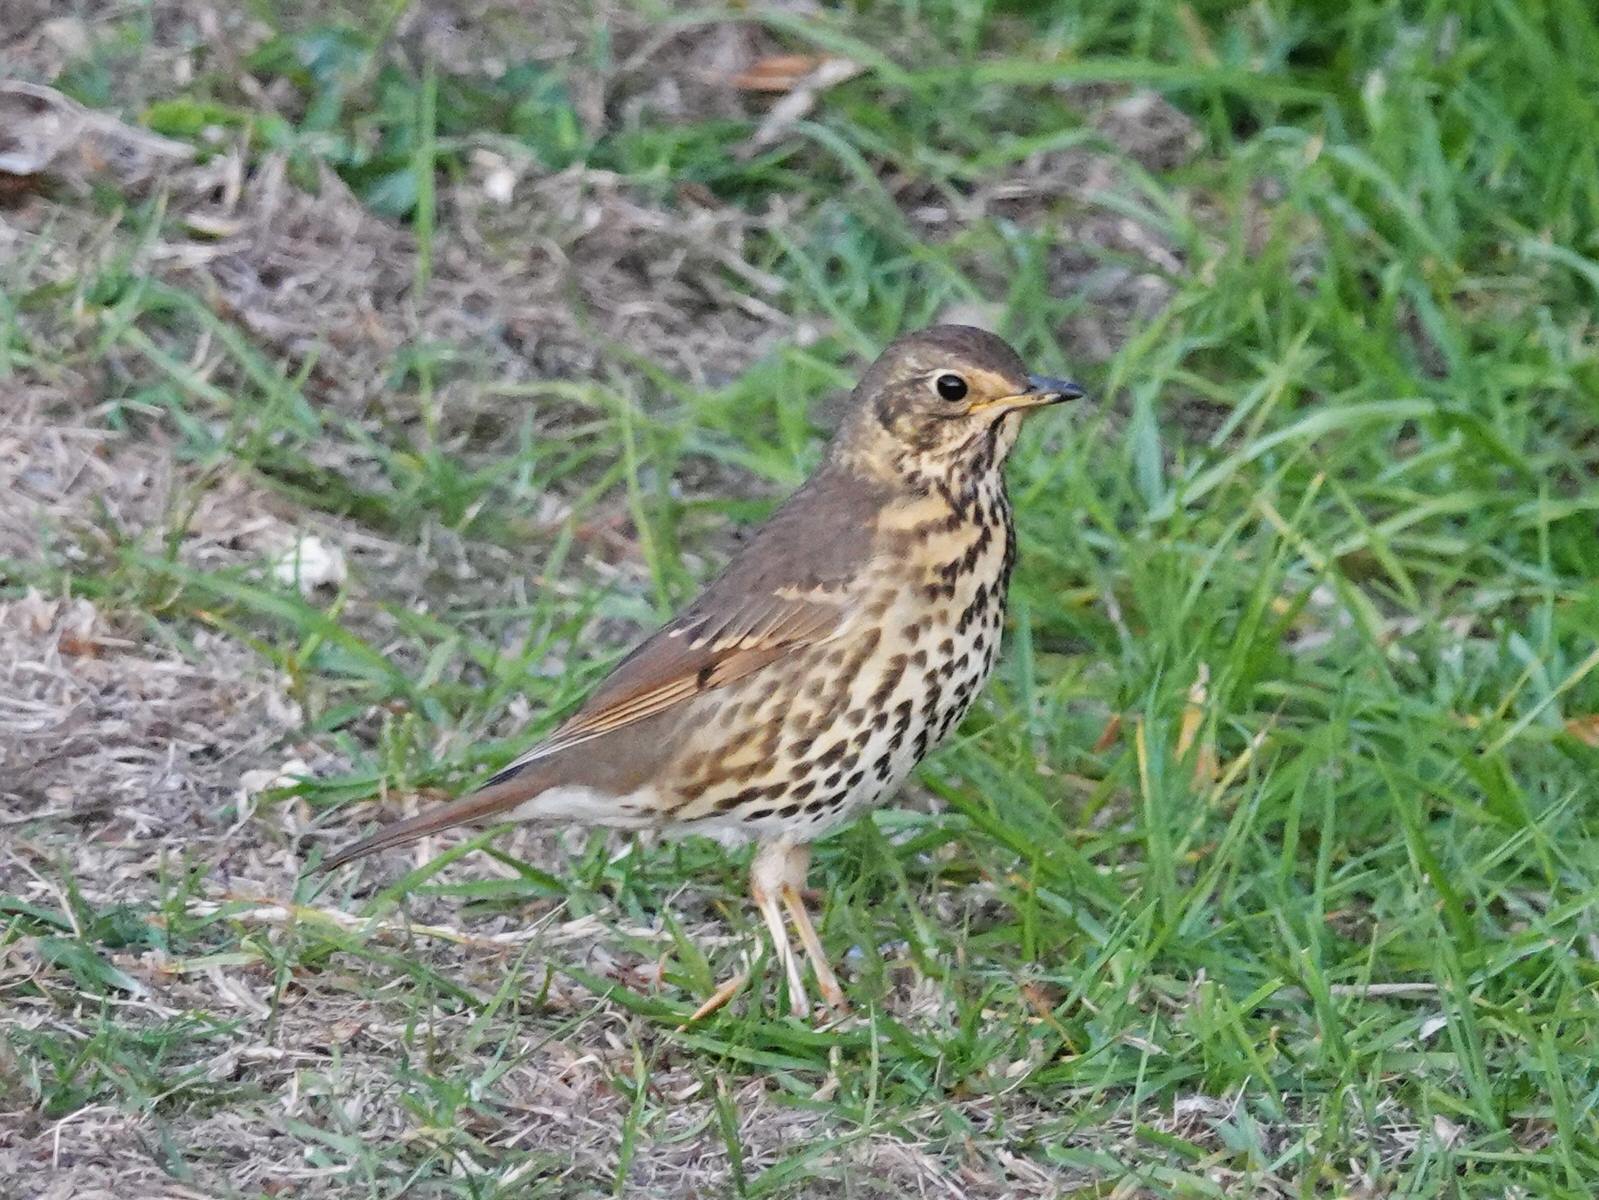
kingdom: Animalia
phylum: Chordata
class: Aves
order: Passeriformes
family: Turdidae
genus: Turdus
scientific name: Turdus philomelos
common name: Song thrush
